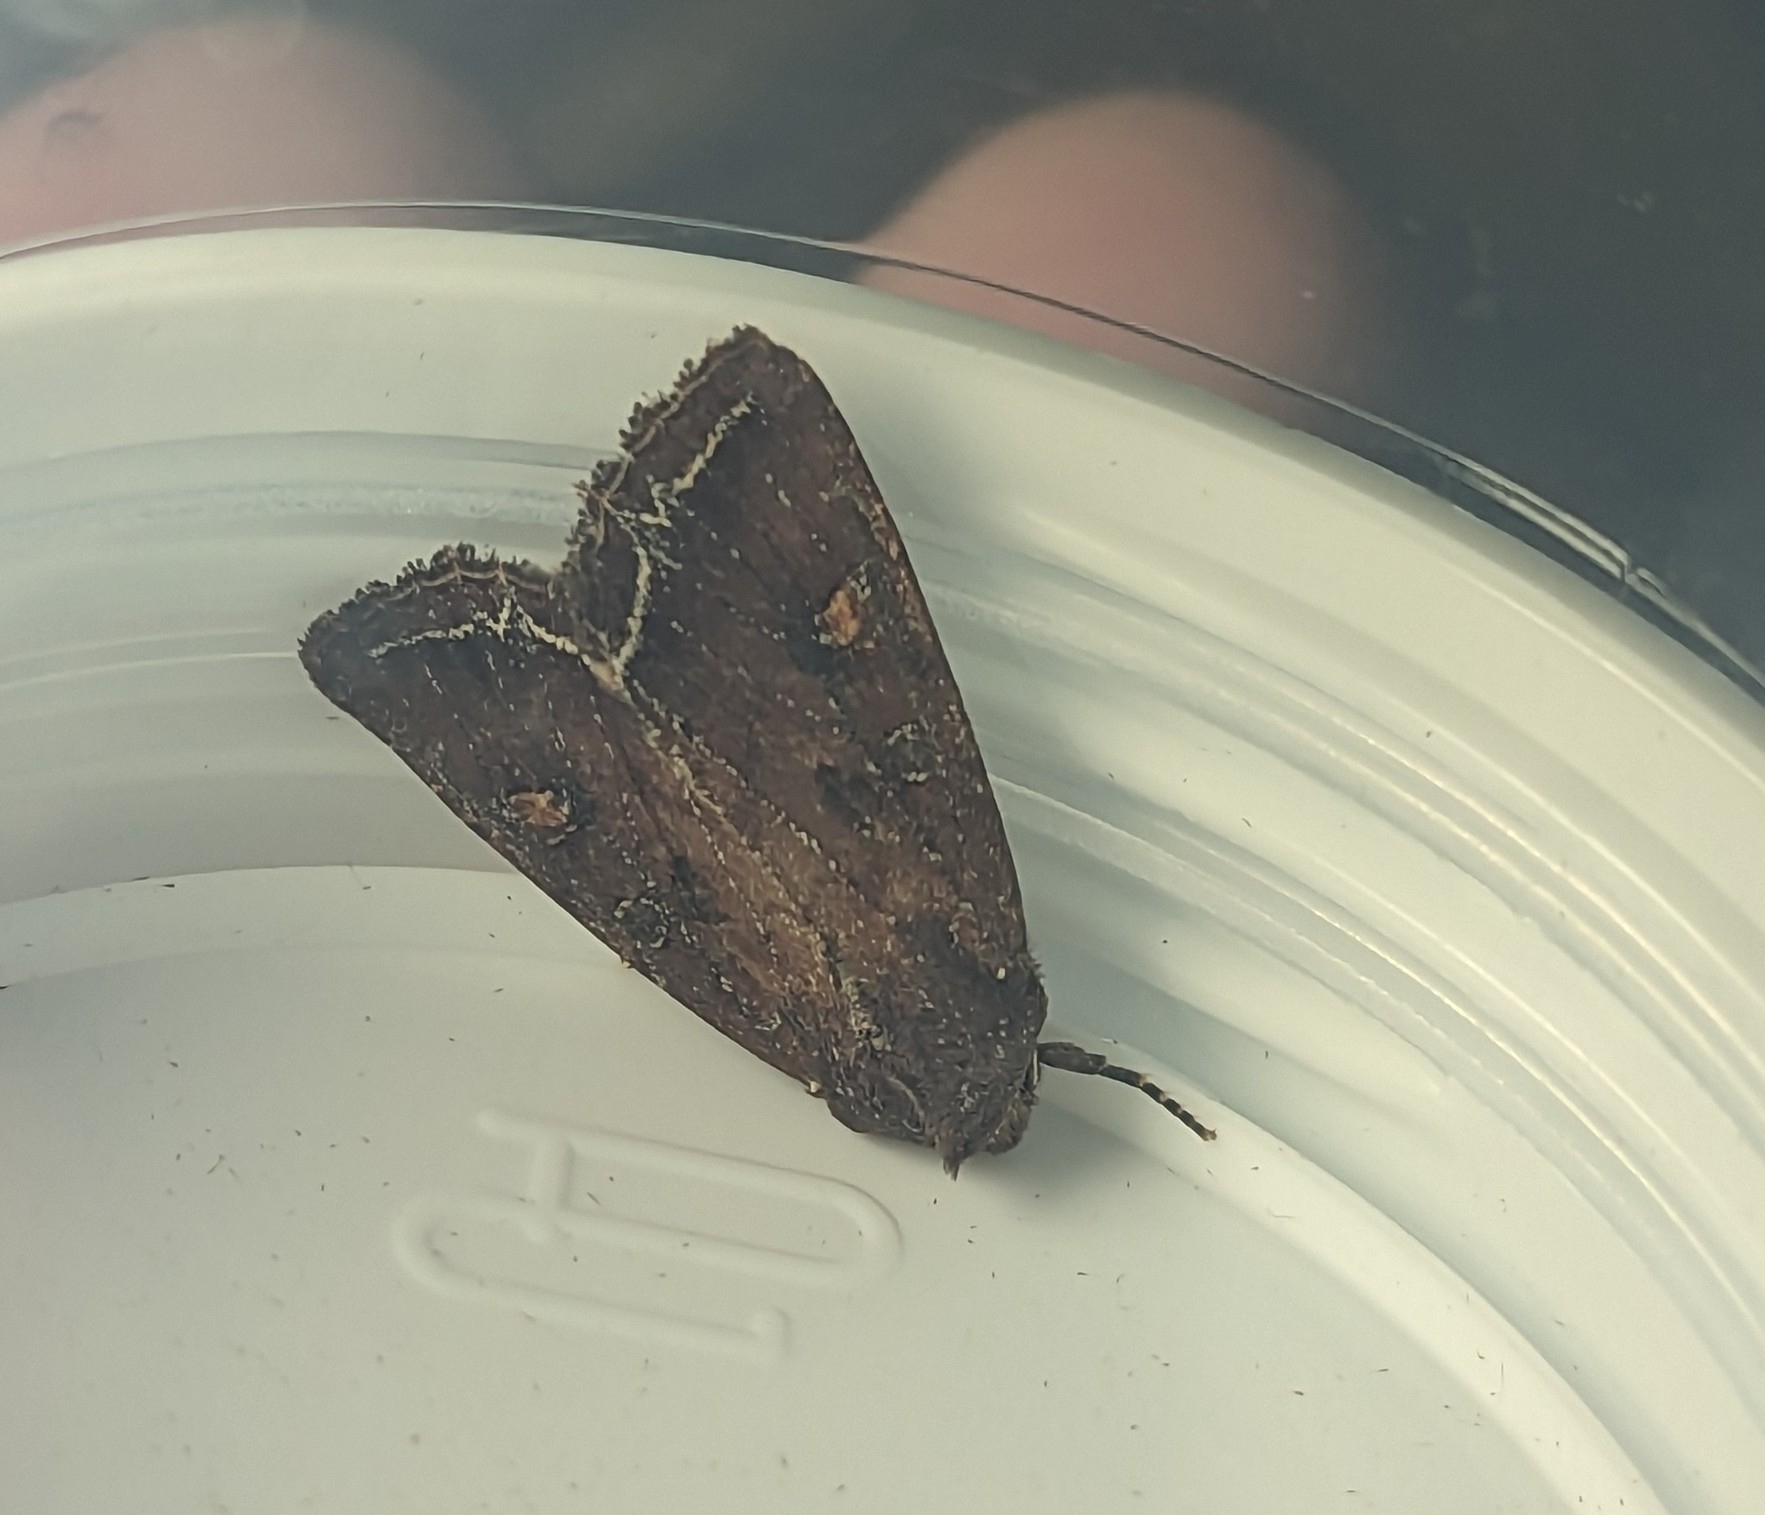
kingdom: Animalia
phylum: Arthropoda
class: Insecta
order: Lepidoptera
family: Noctuidae
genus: Lacanobia
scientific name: Lacanobia oleracea
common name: Bright-line brown-eye
